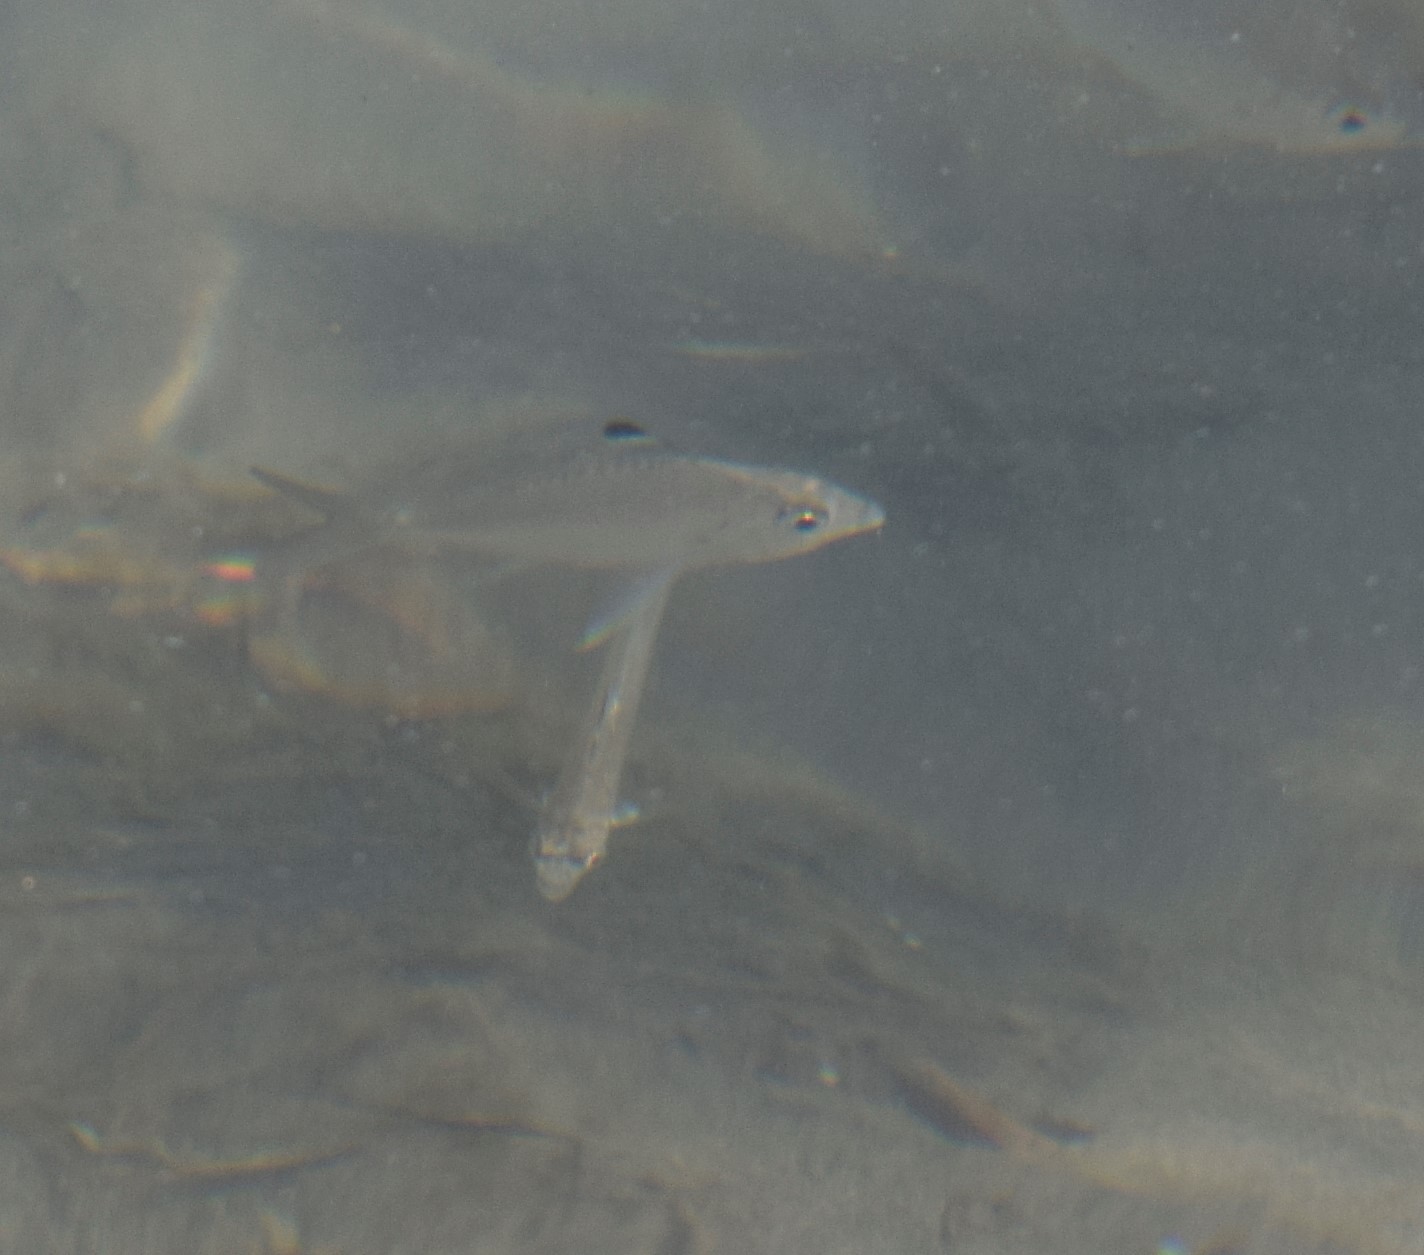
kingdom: Animalia
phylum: Chordata
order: Perciformes
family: Gerreidae
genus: Eucinostomus
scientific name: Eucinostomus melanopterus
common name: Flagfin mojarra
